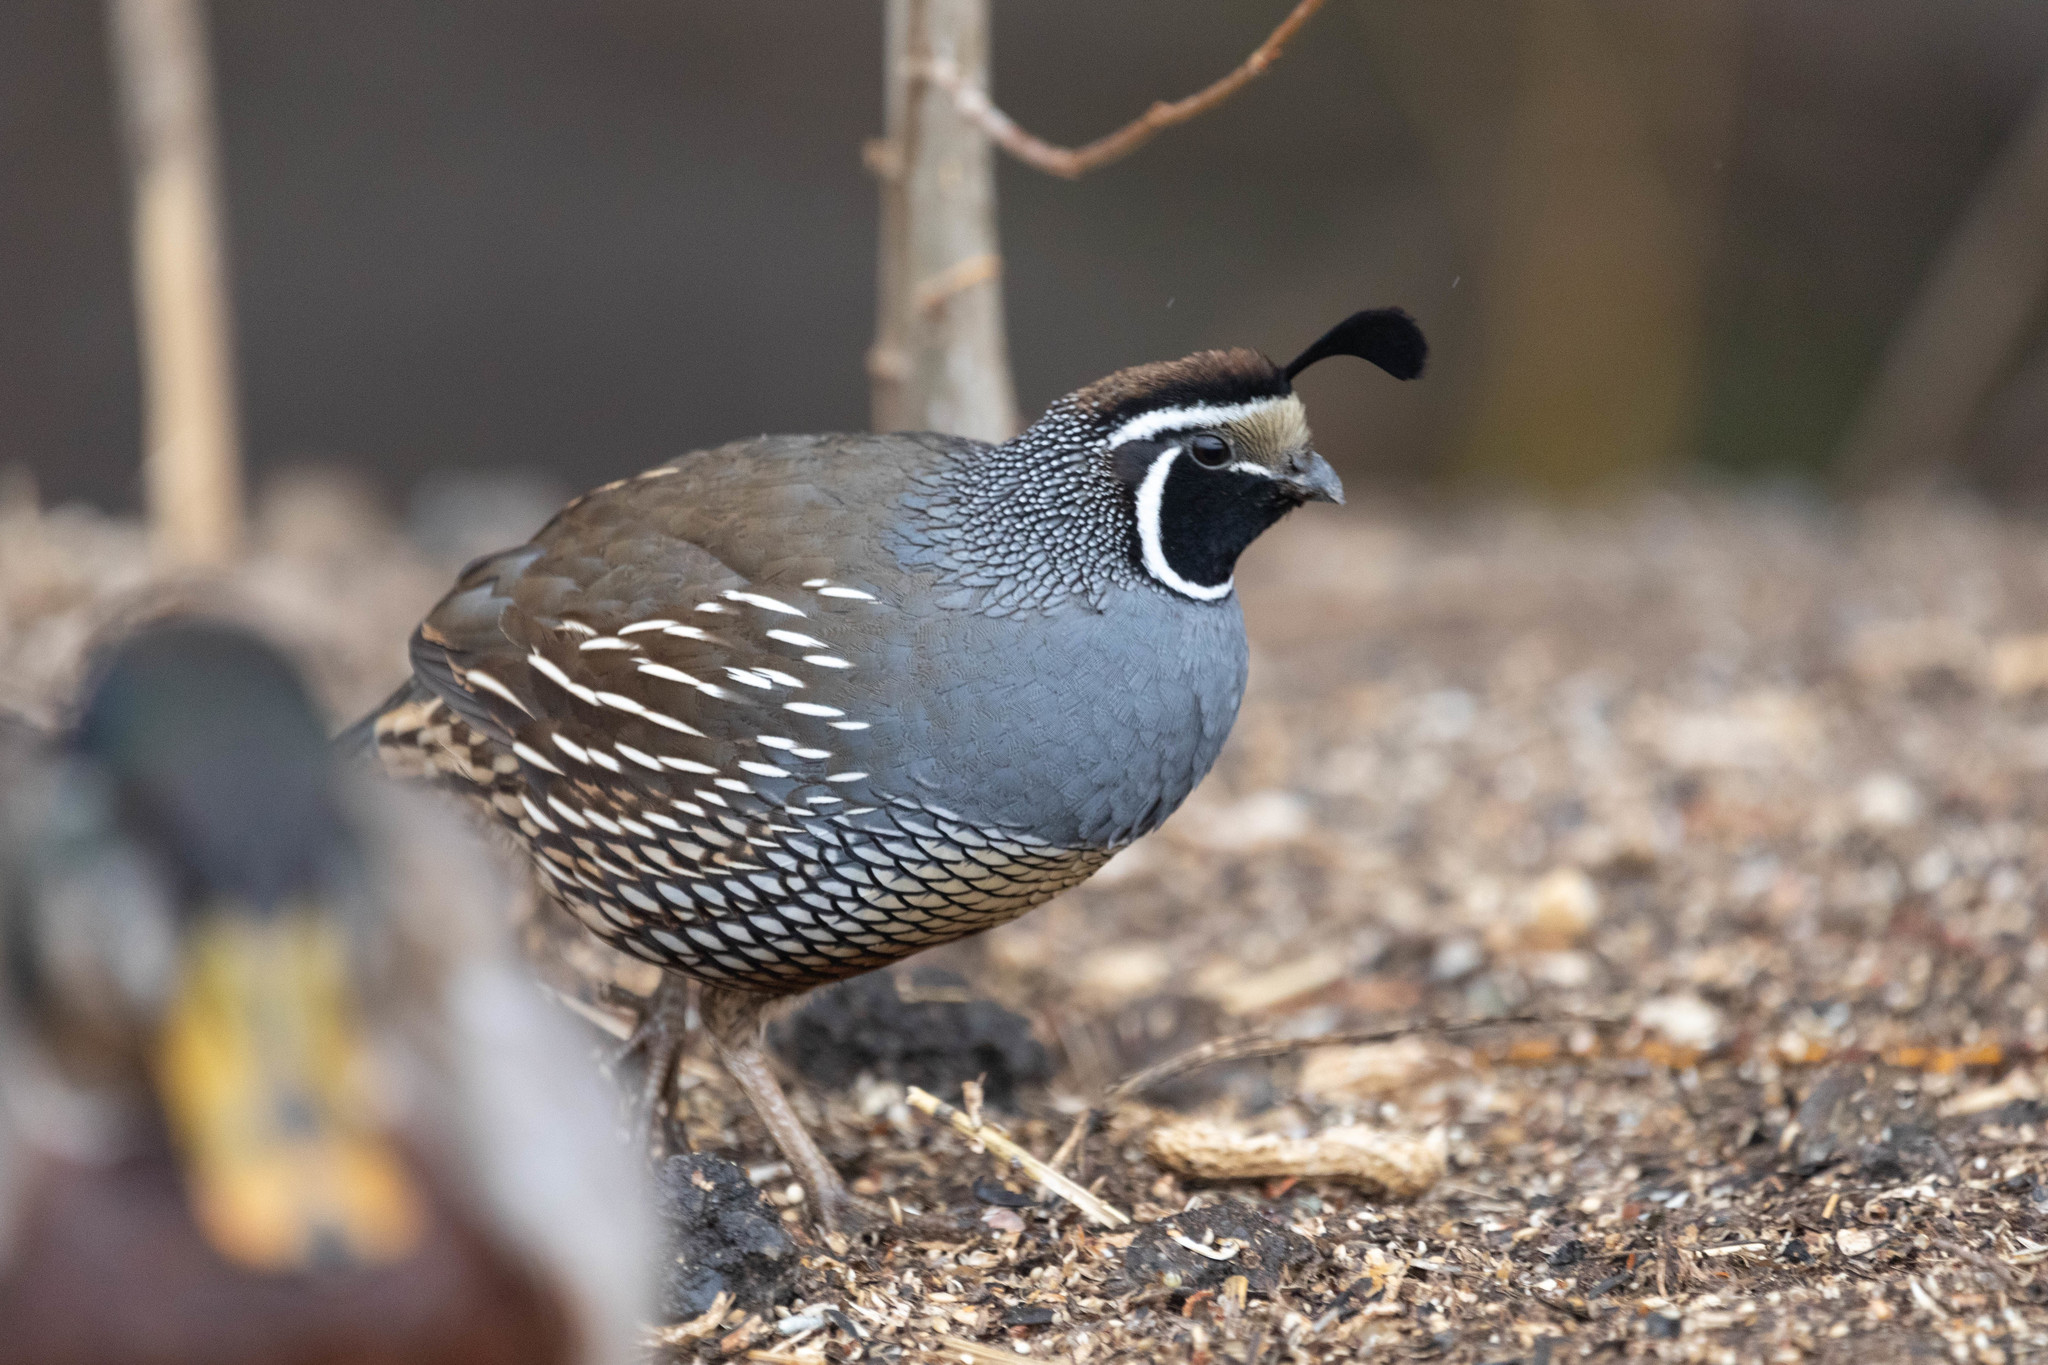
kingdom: Animalia
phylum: Chordata
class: Aves
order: Galliformes
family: Odontophoridae
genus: Callipepla
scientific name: Callipepla californica
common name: California quail
